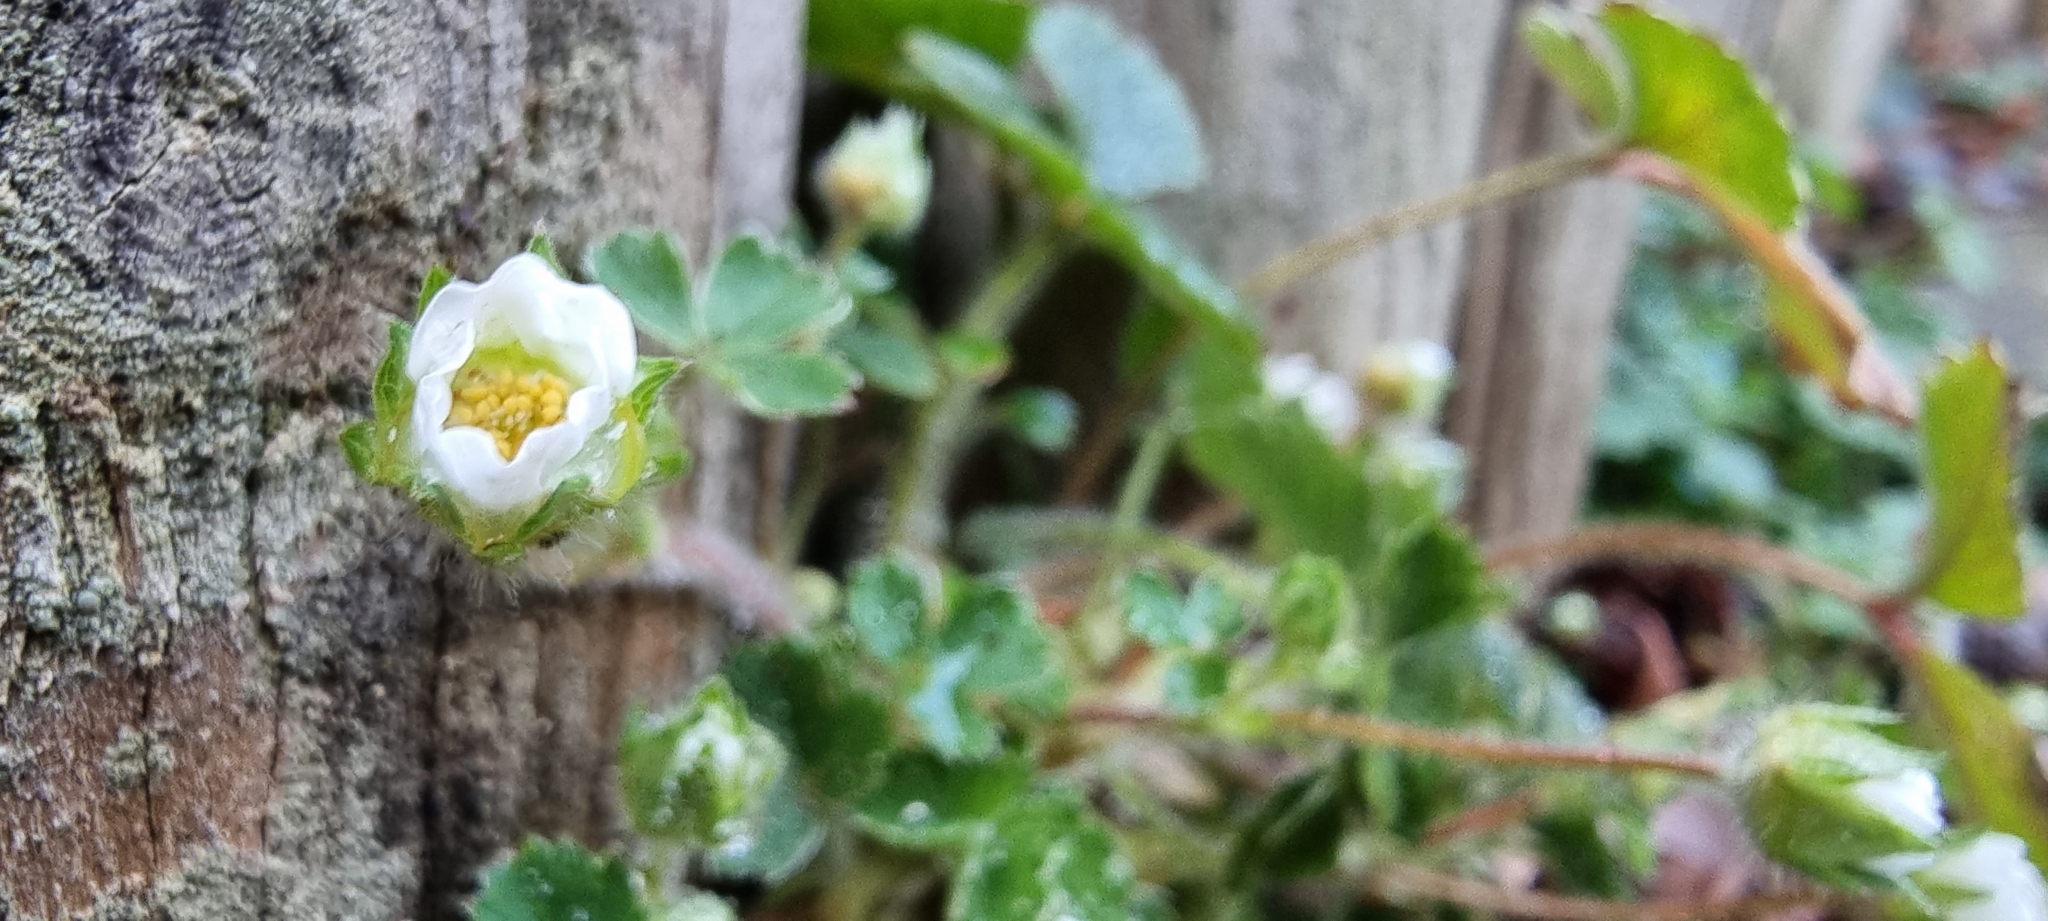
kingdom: Plantae
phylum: Tracheophyta
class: Magnoliopsida
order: Rosales
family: Rosaceae
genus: Potentilla
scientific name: Potentilla sterilis
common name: Barren strawberry
